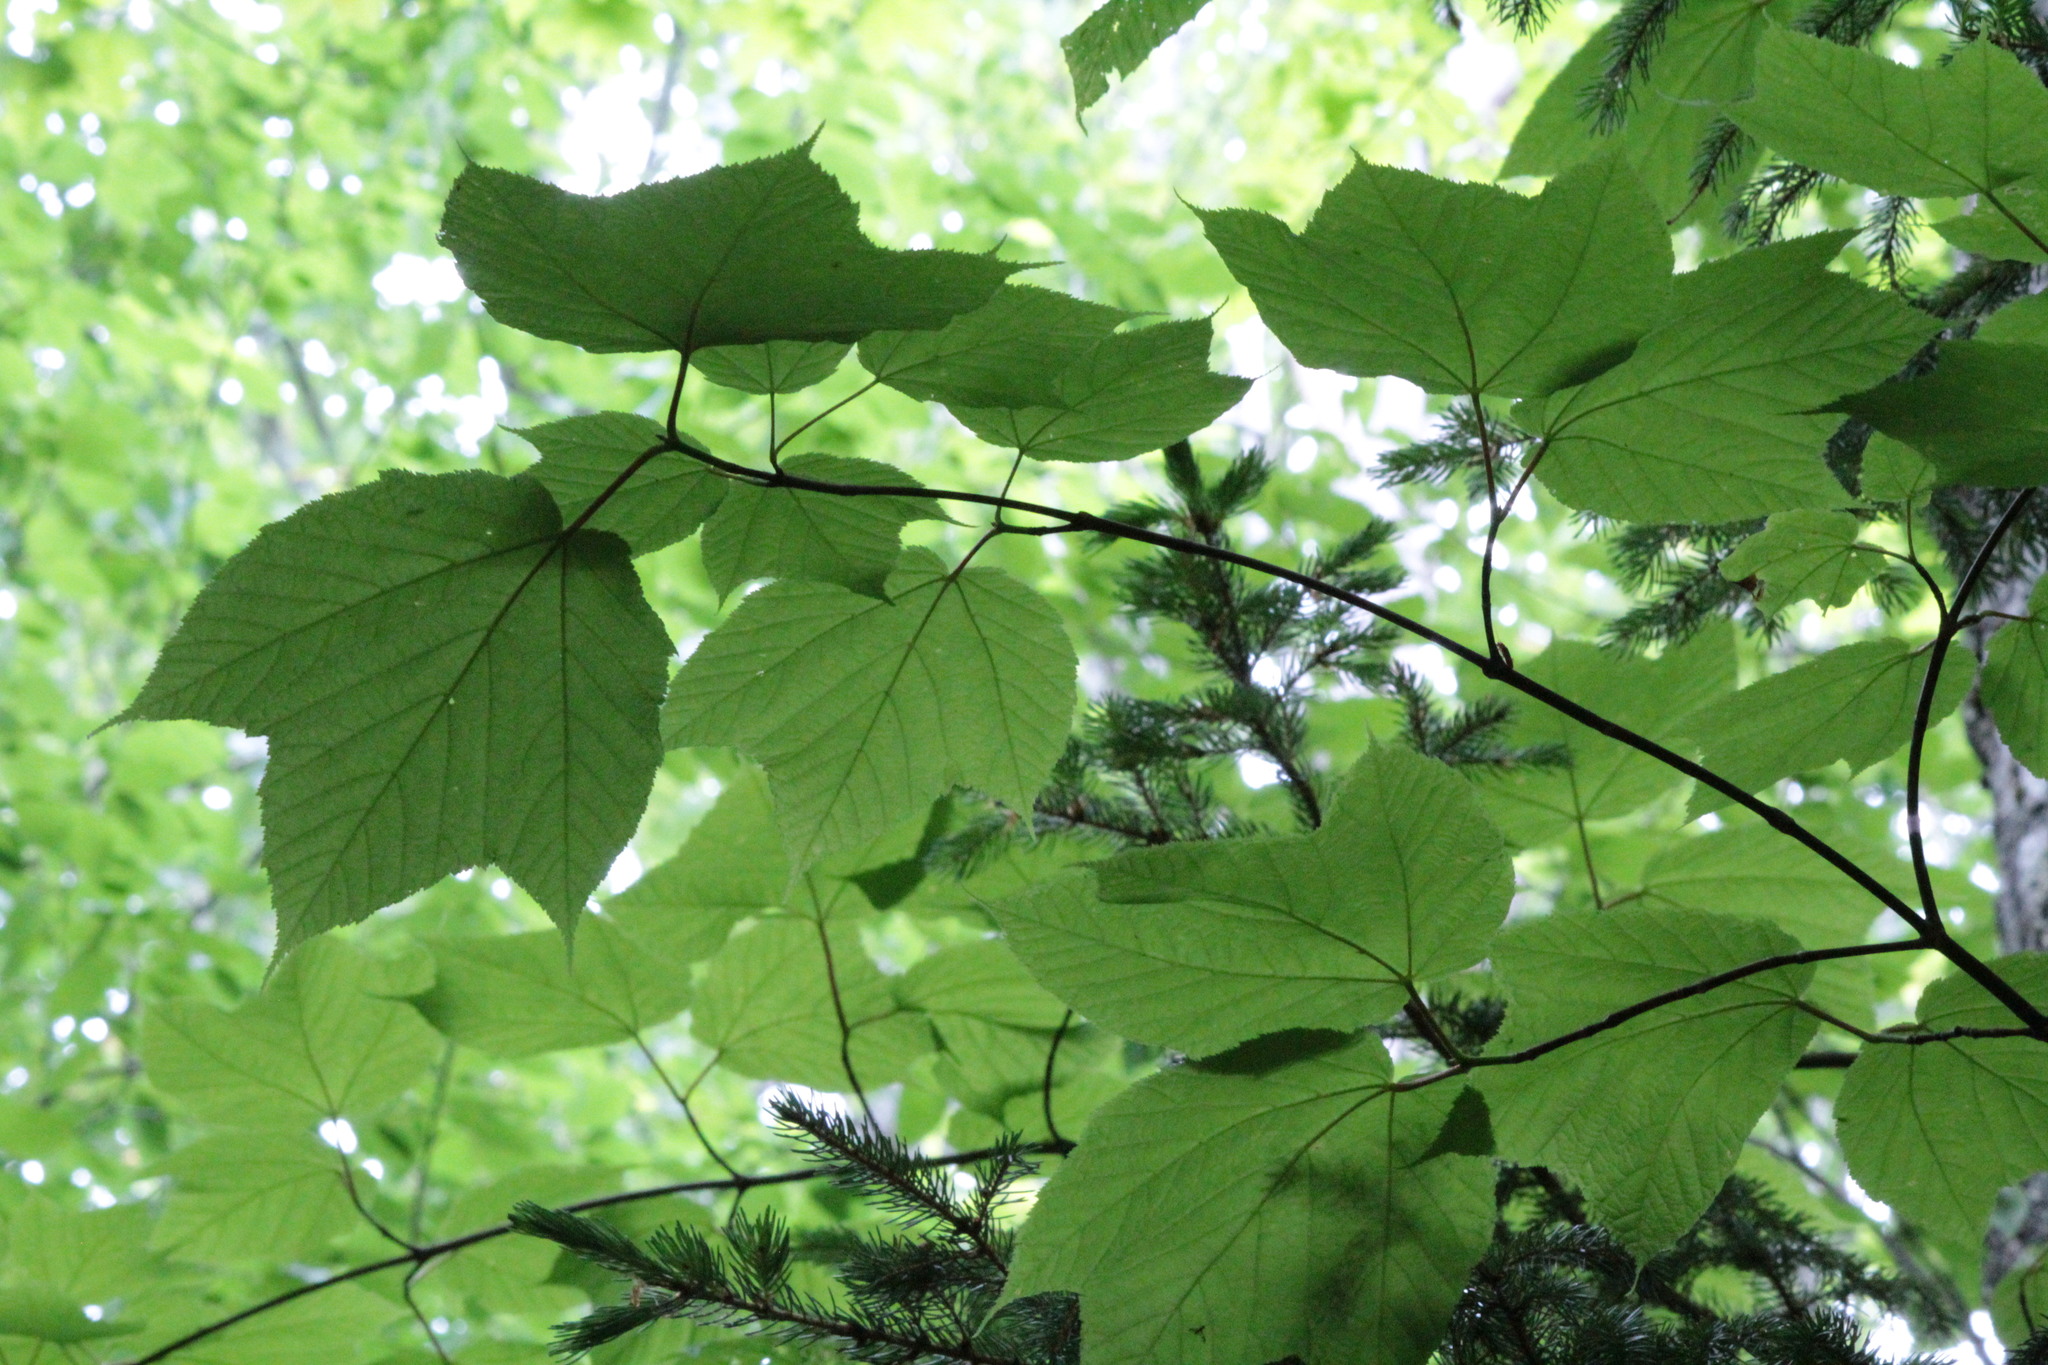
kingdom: Plantae
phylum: Tracheophyta
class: Magnoliopsida
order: Sapindales
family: Sapindaceae
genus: Acer
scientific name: Acer pensylvanicum
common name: Moosewood
